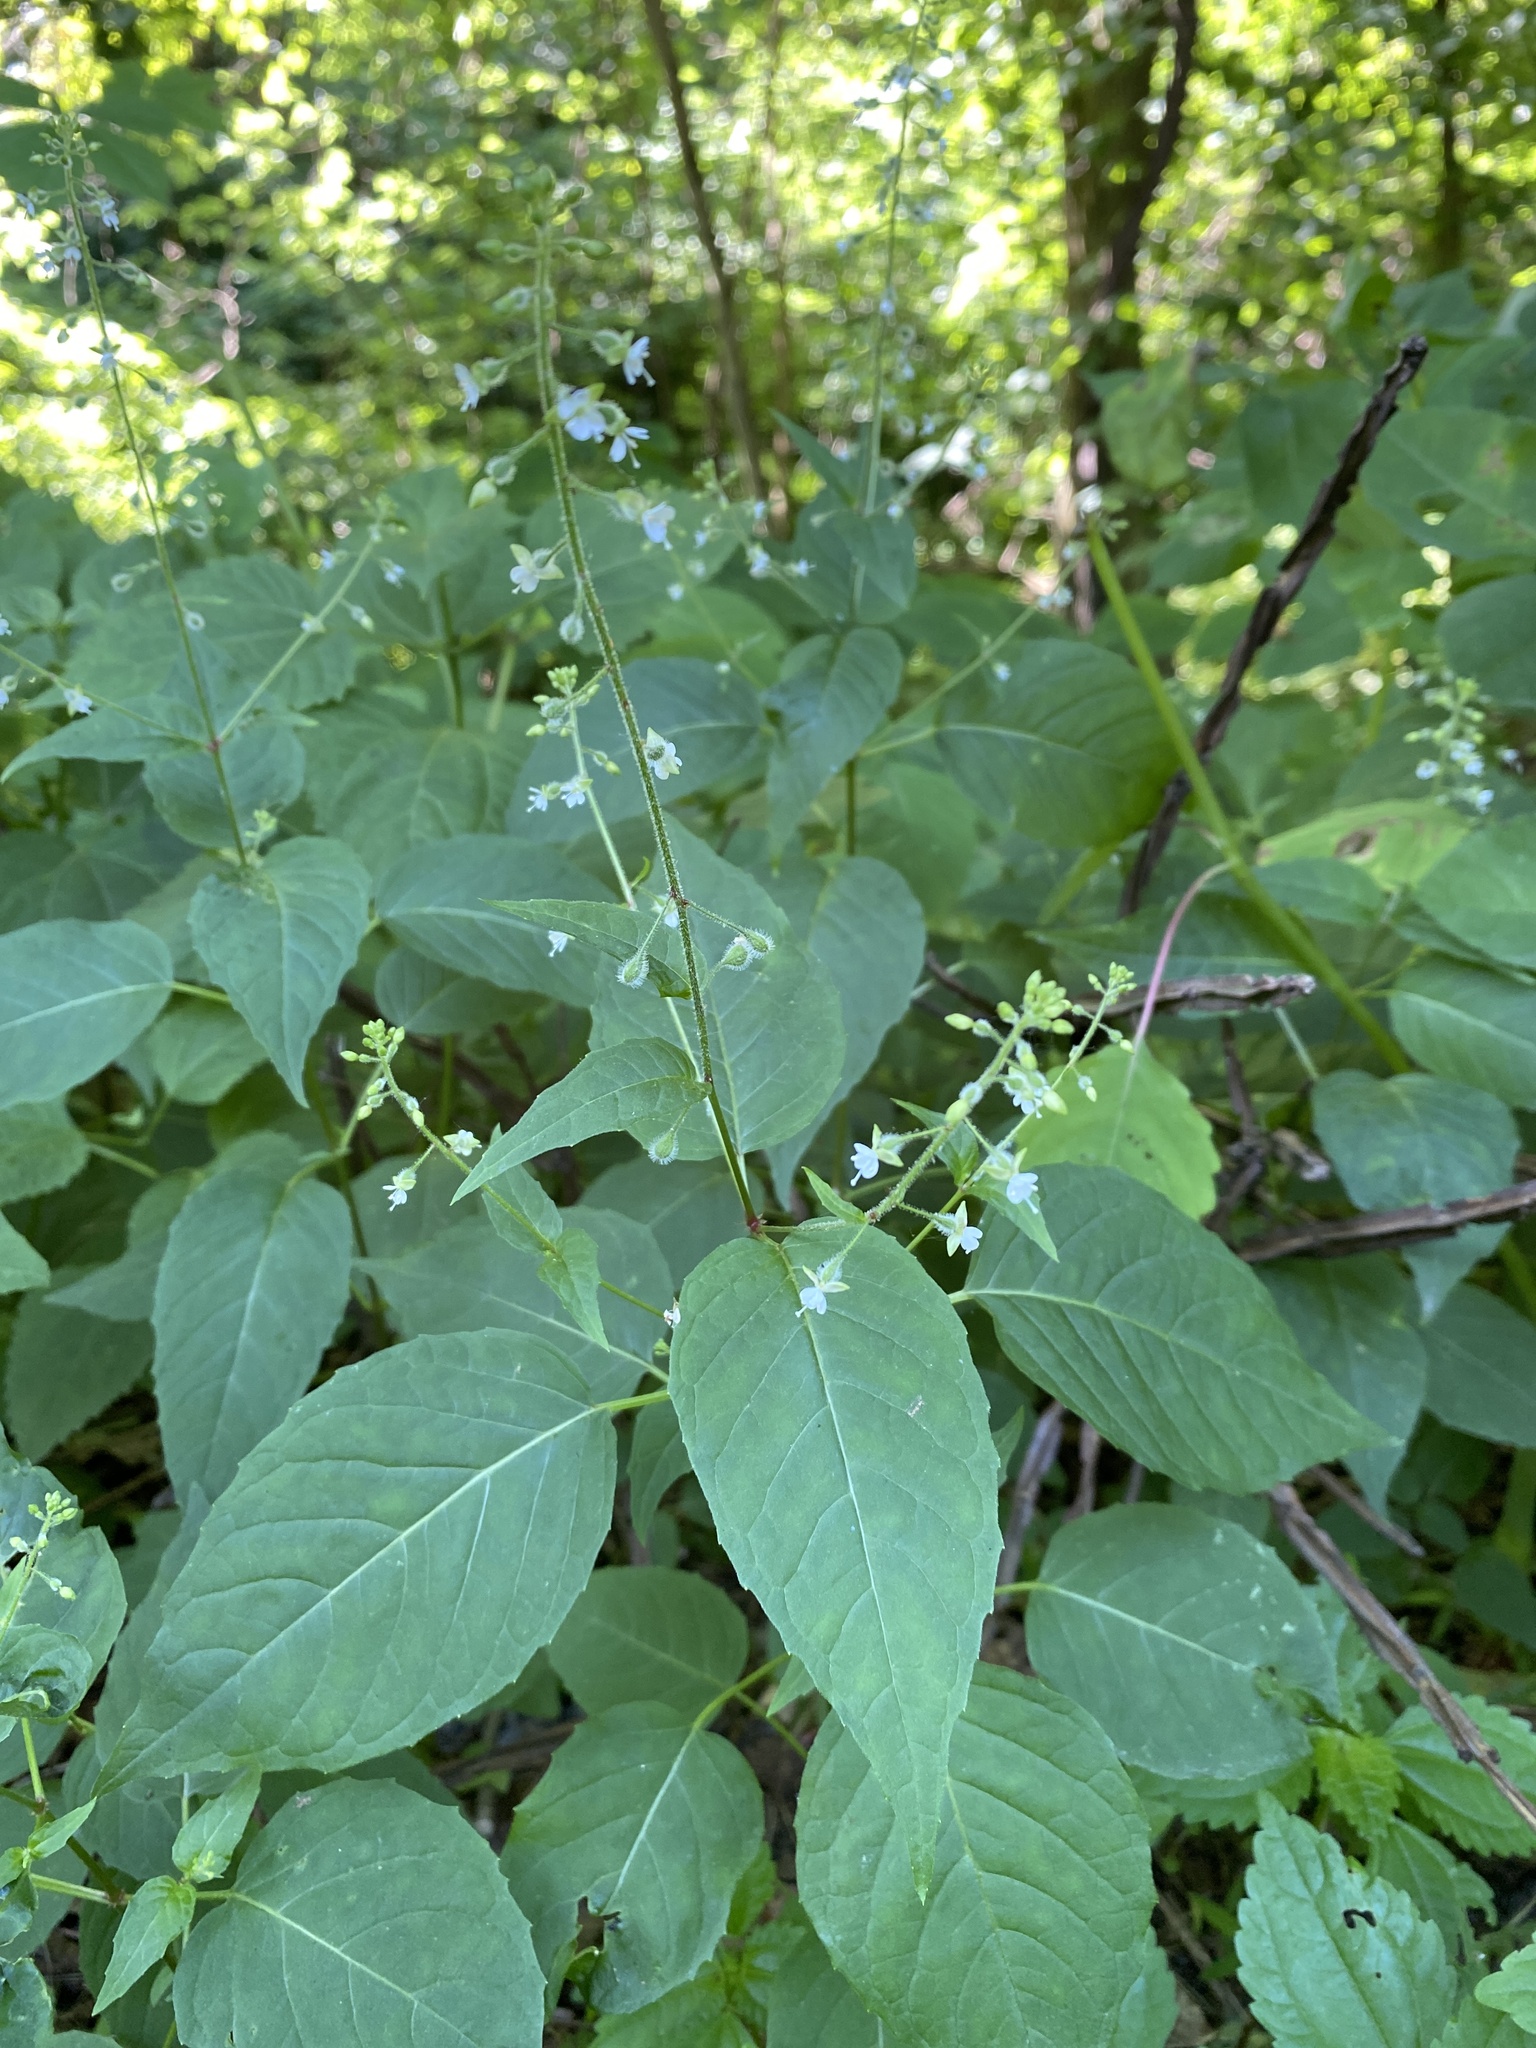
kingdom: Plantae
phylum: Tracheophyta
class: Magnoliopsida
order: Myrtales
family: Onagraceae
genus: Circaea
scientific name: Circaea canadensis
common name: Broad-leaved enchanter's nightshade
